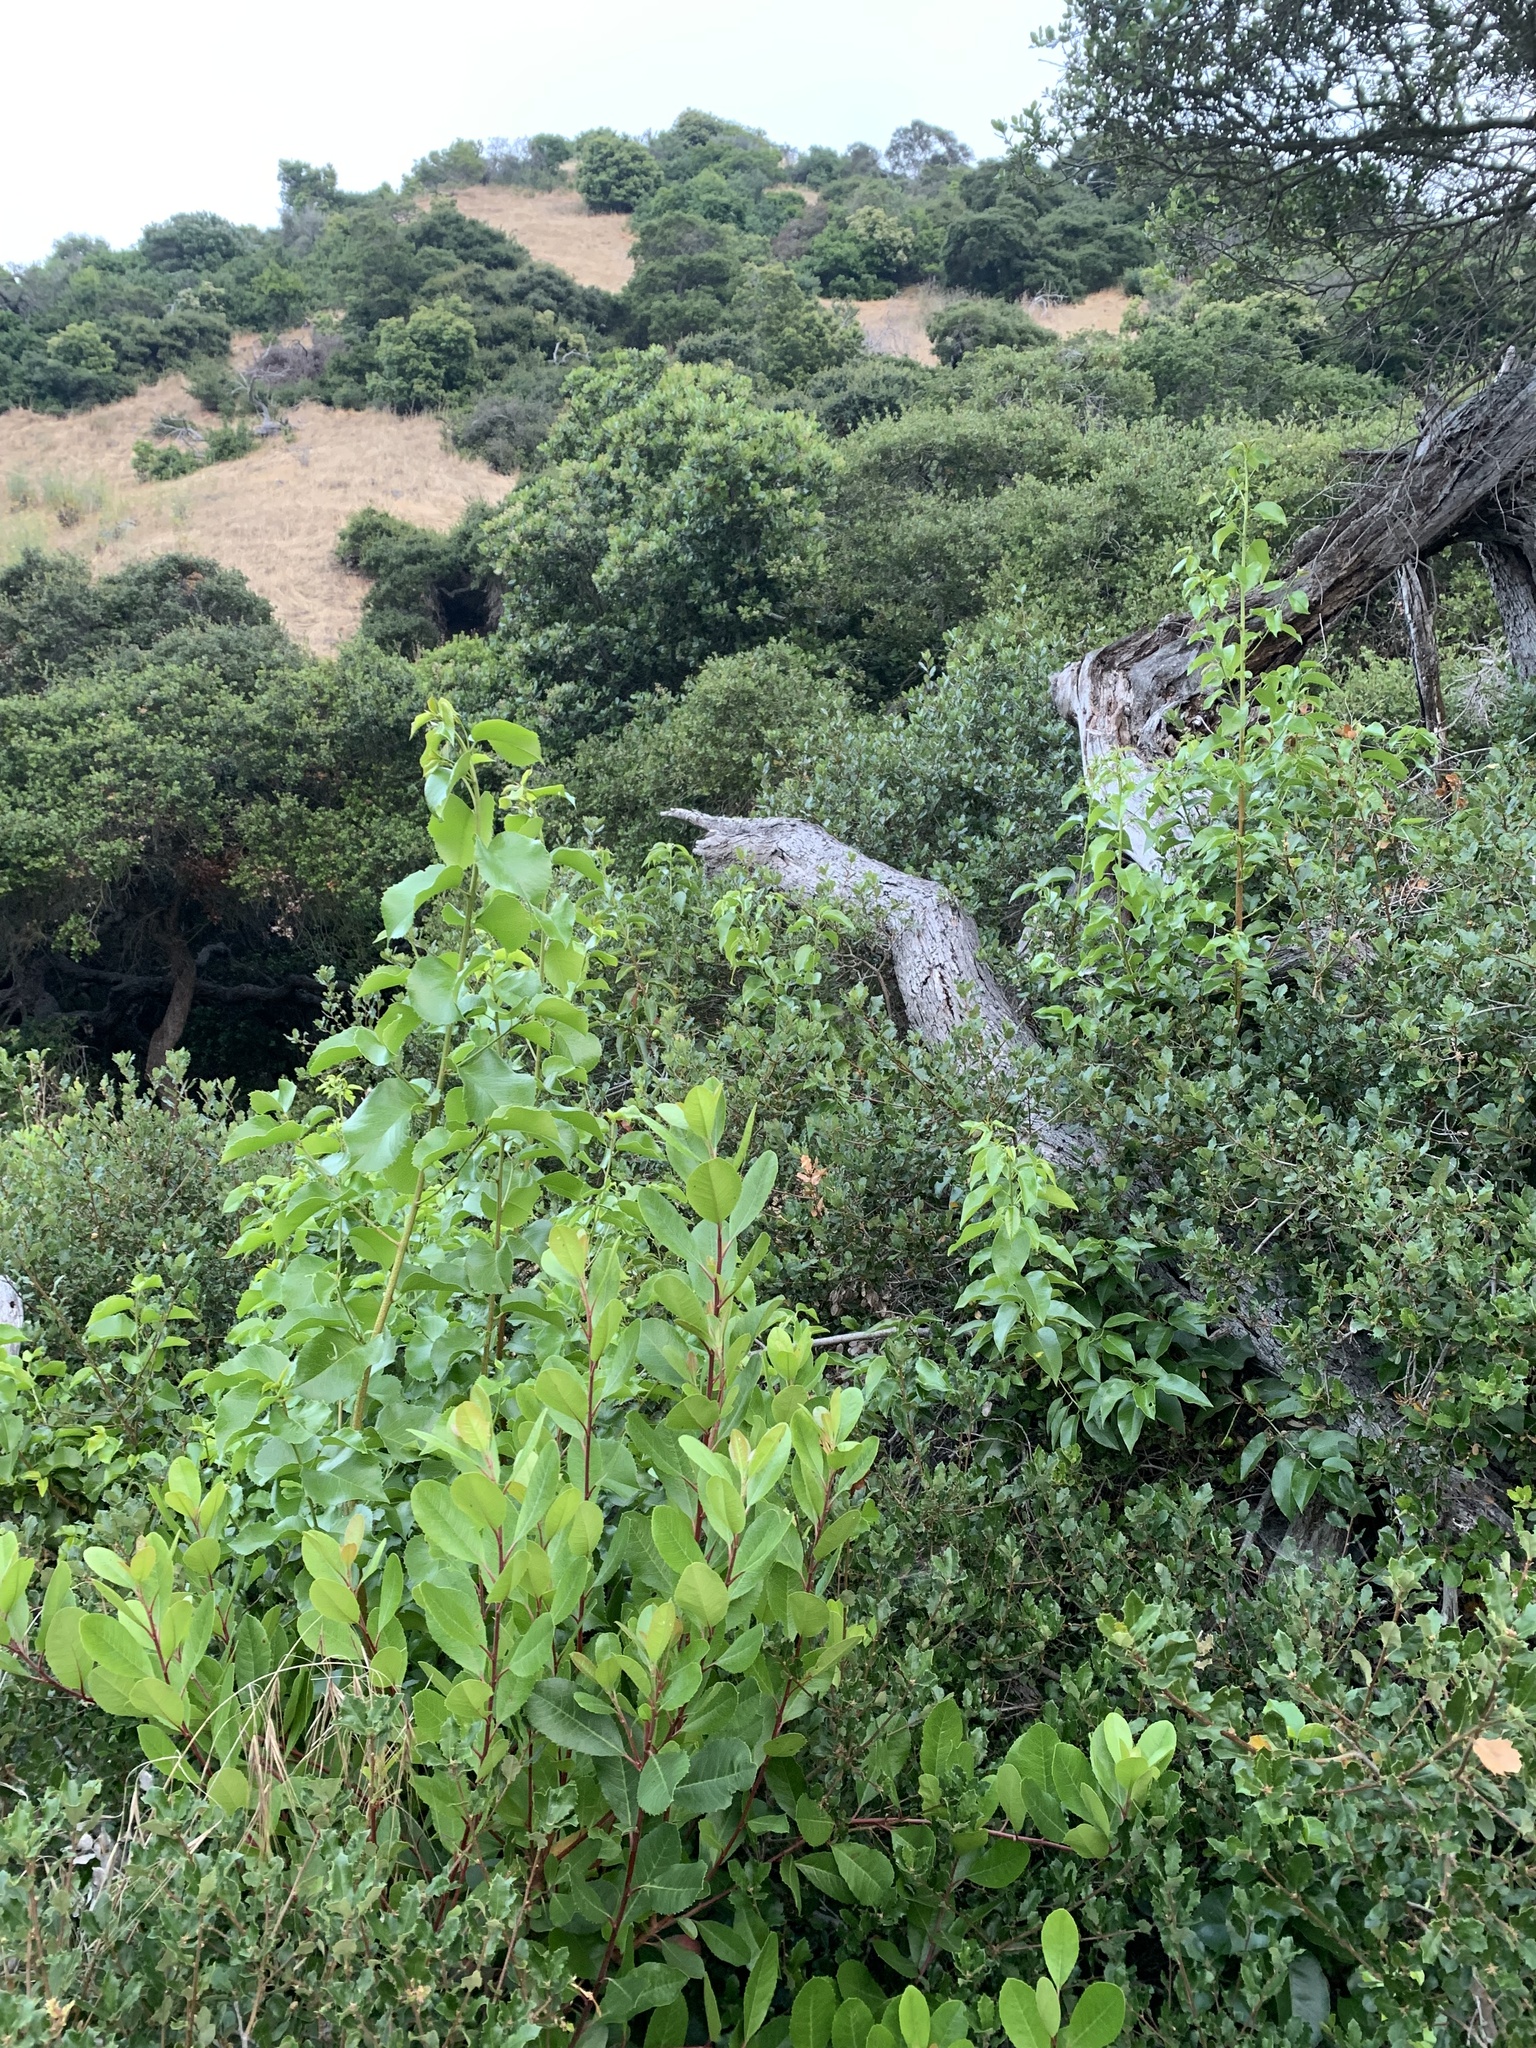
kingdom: Plantae
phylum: Tracheophyta
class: Magnoliopsida
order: Rosales
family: Rosaceae
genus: Prunus
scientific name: Prunus ilicifolia
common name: Hollyleaf cherry
